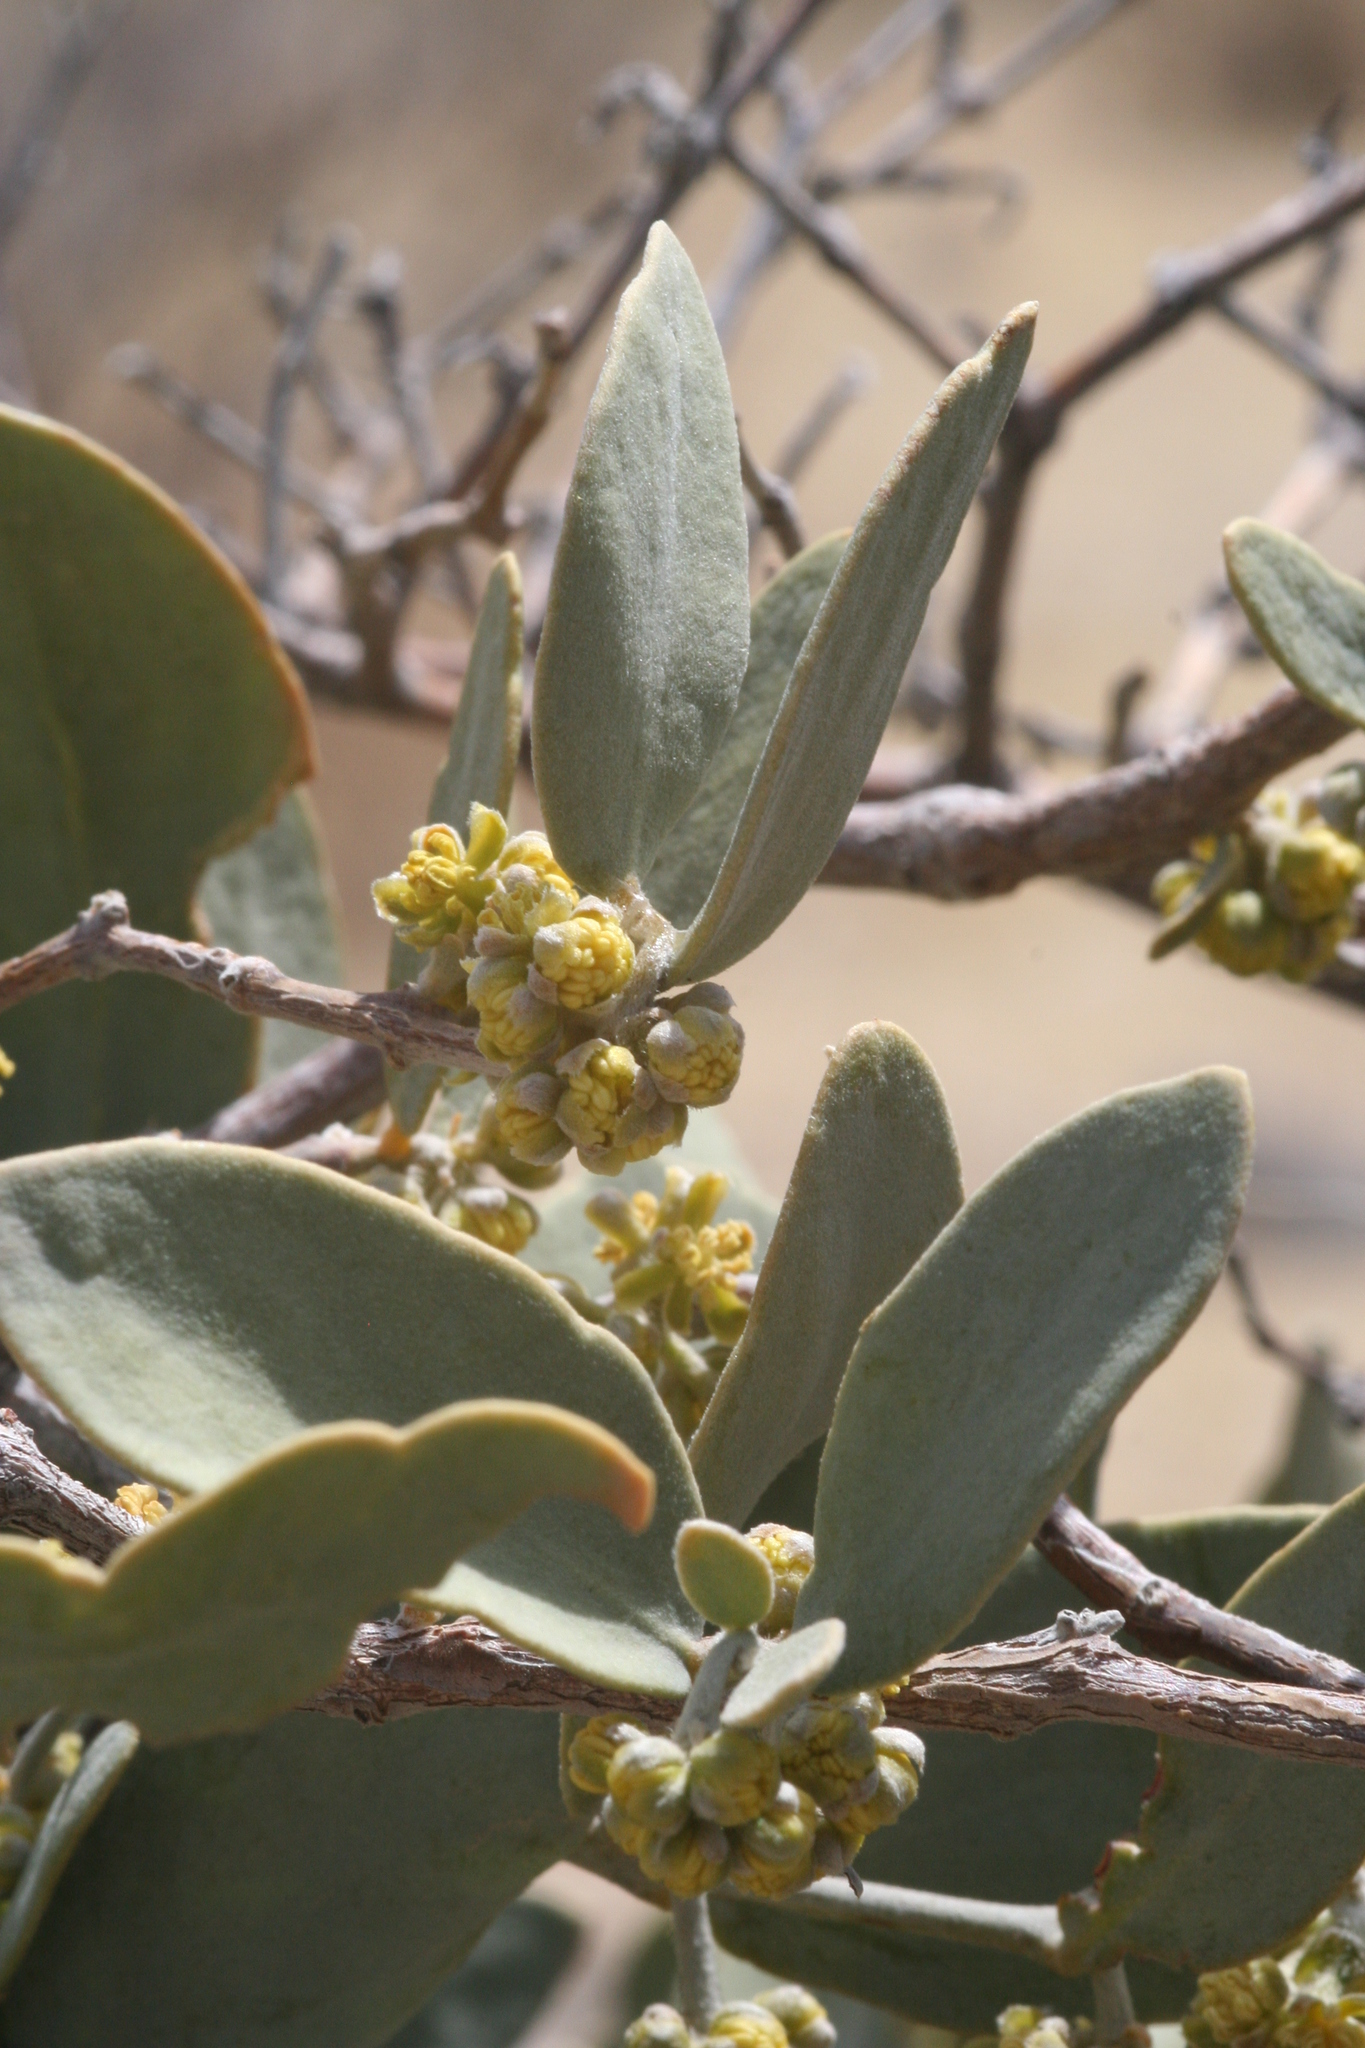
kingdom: Plantae
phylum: Tracheophyta
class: Magnoliopsida
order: Caryophyllales
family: Simmondsiaceae
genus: Simmondsia
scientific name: Simmondsia chinensis
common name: Jojoba
